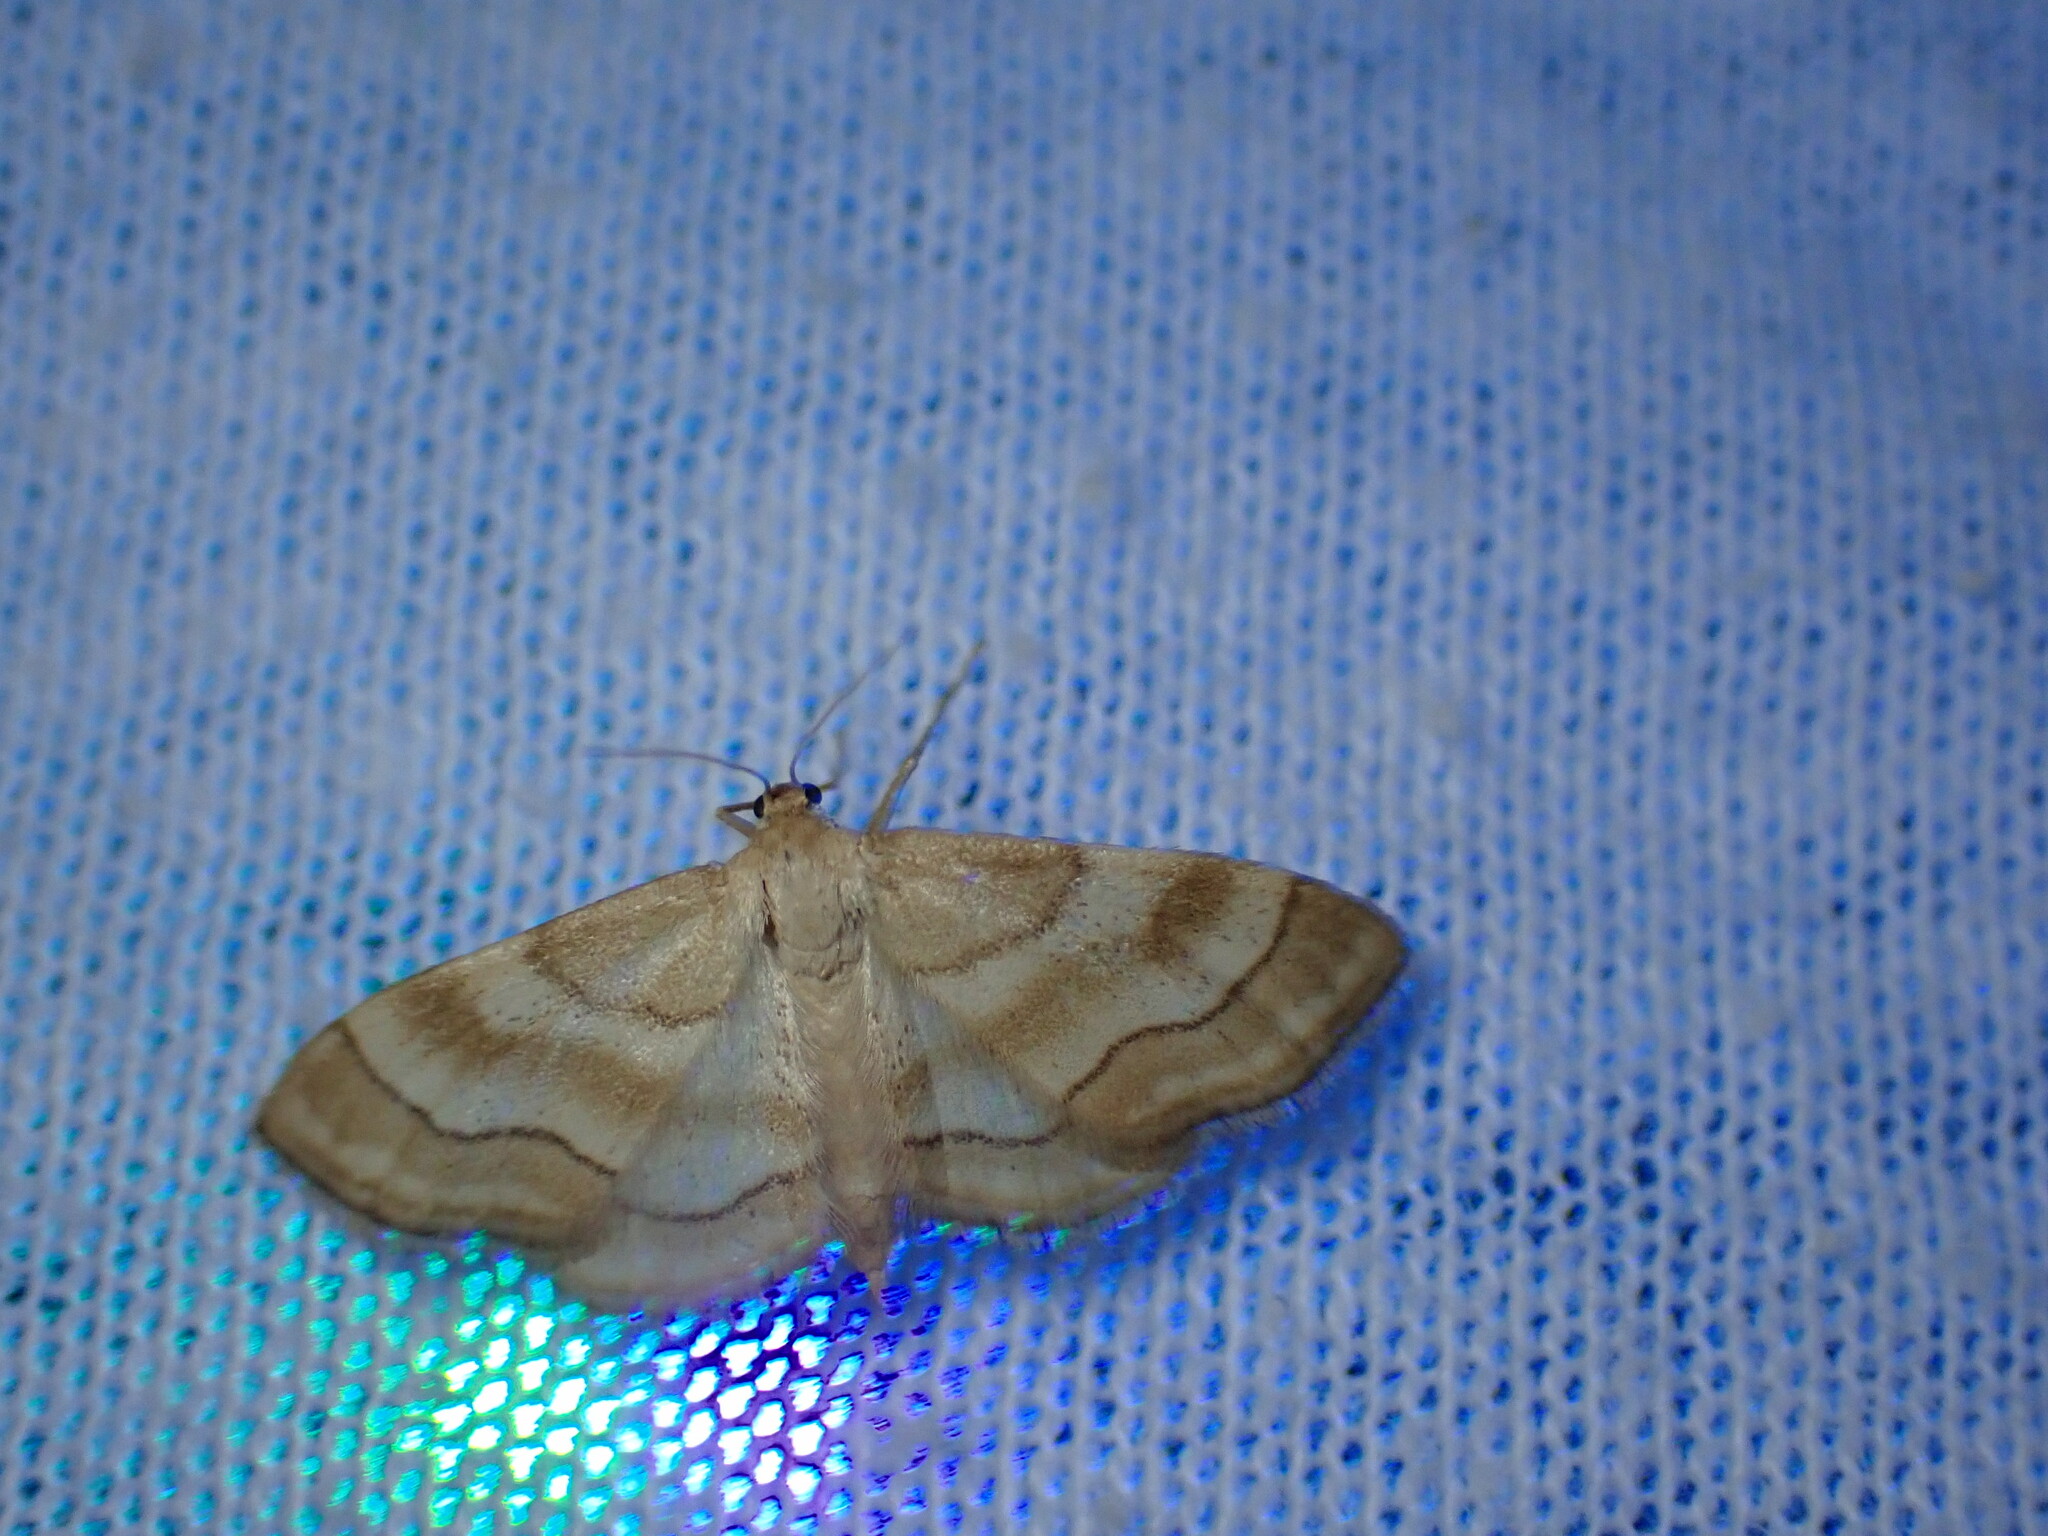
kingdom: Animalia
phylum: Arthropoda
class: Insecta
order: Lepidoptera
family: Geometridae
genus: Idaea
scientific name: Idaea circuitaria
